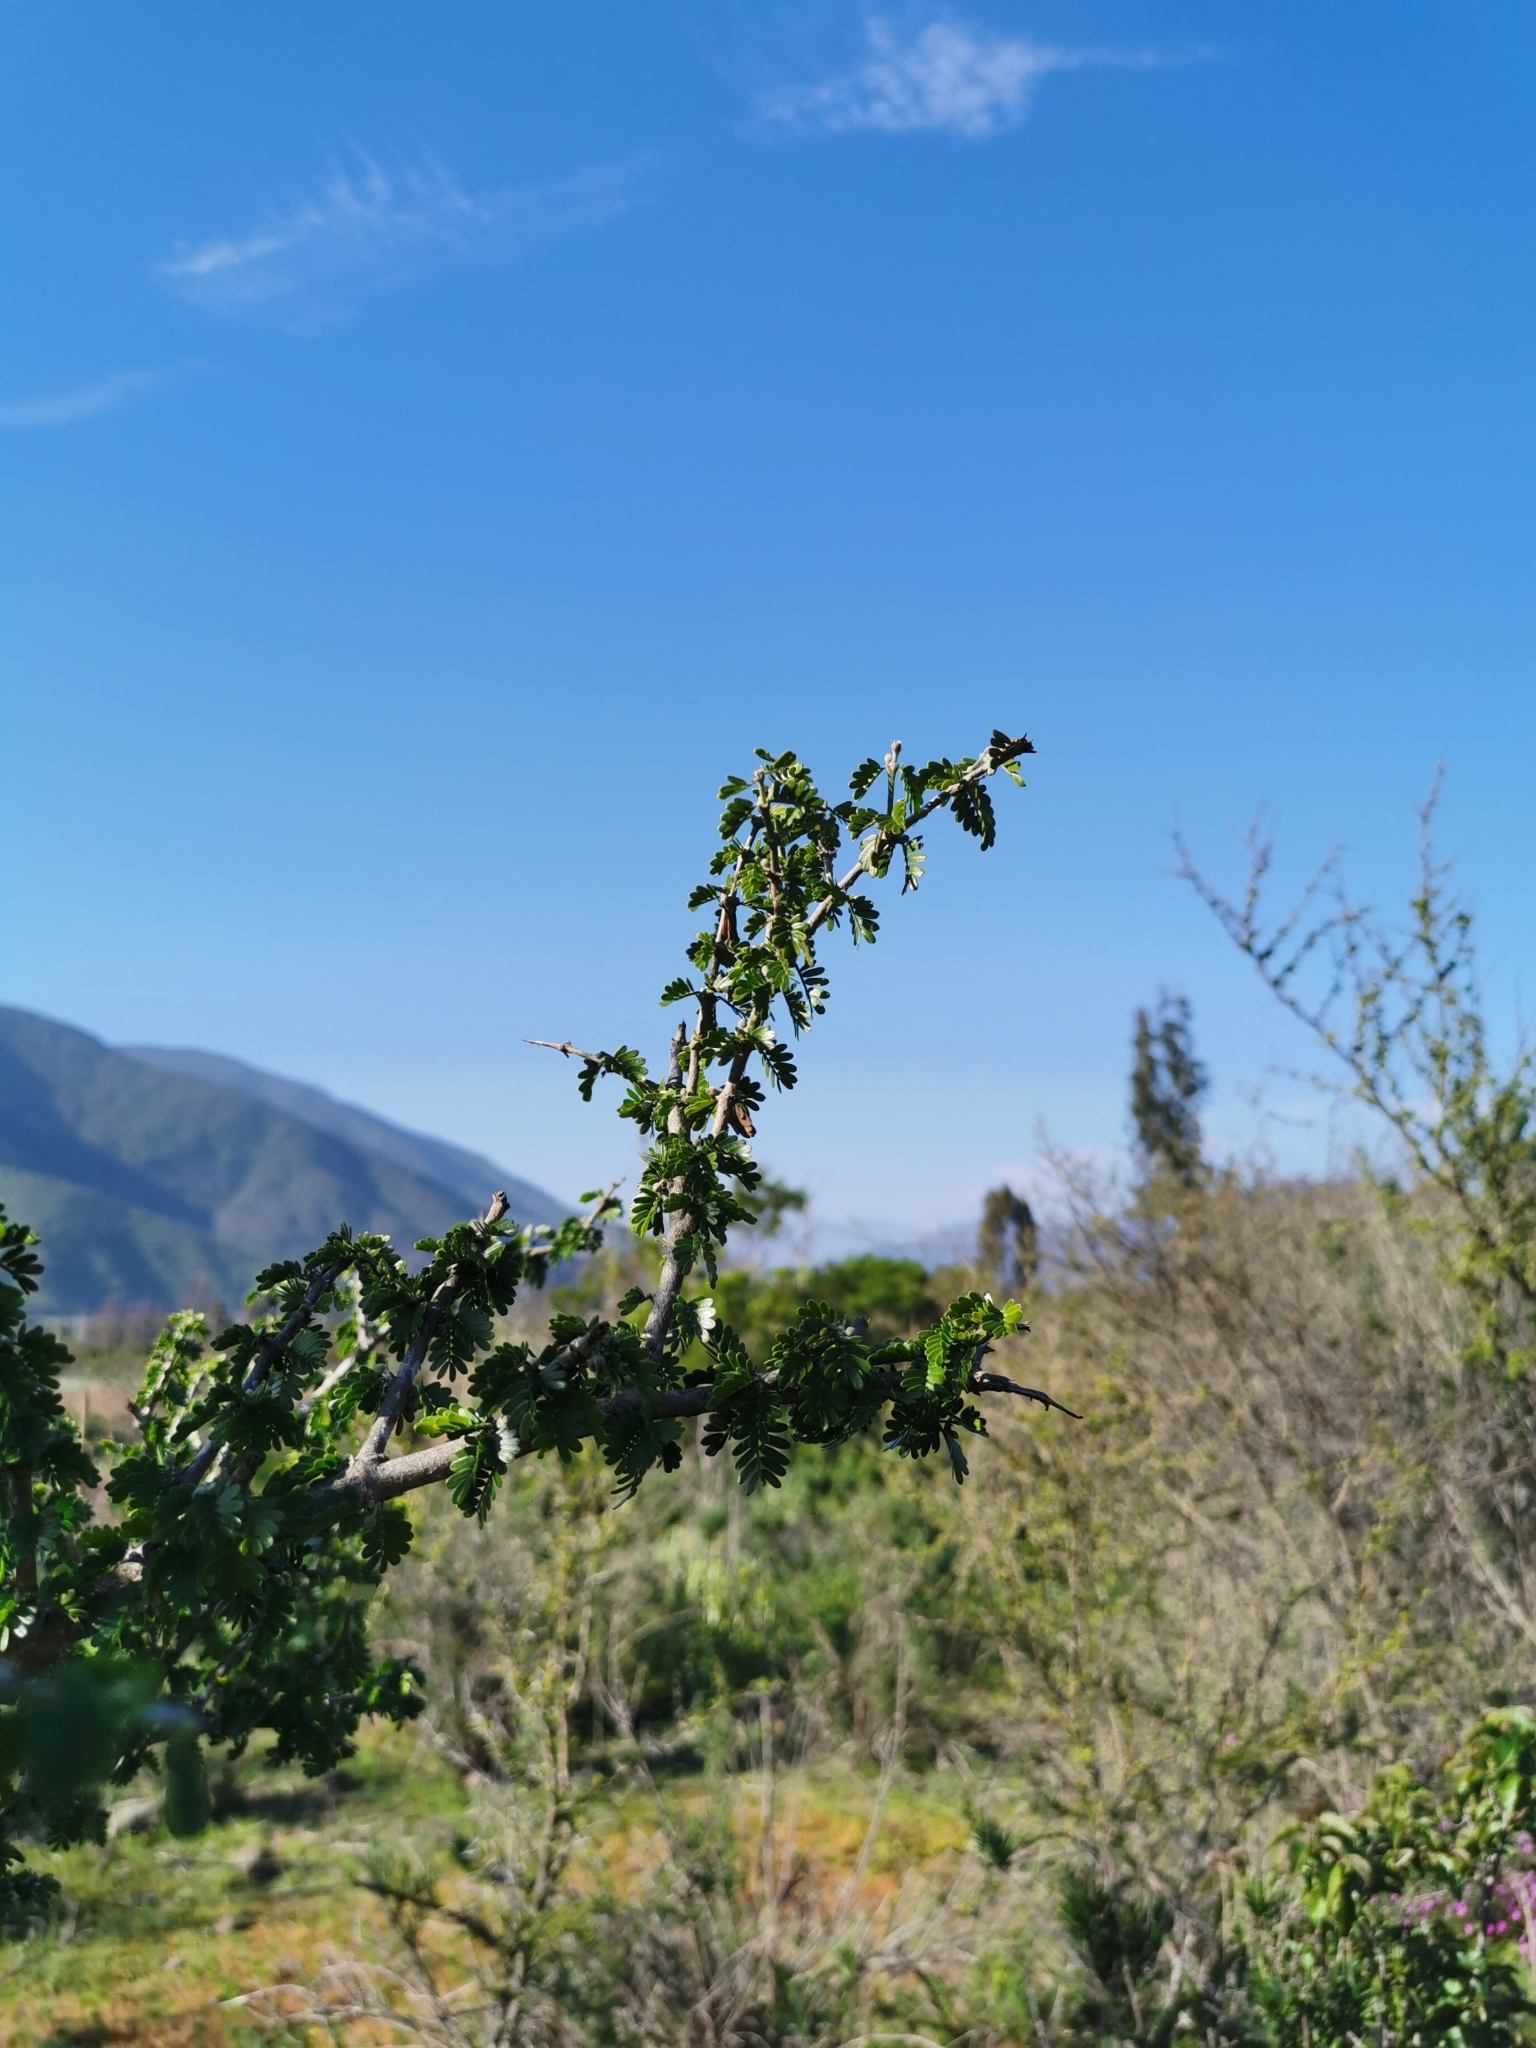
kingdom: Plantae
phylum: Tracheophyta
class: Magnoliopsida
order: Zygophyllales
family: Zygophyllaceae
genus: Porlieria
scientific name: Porlieria chilensis
